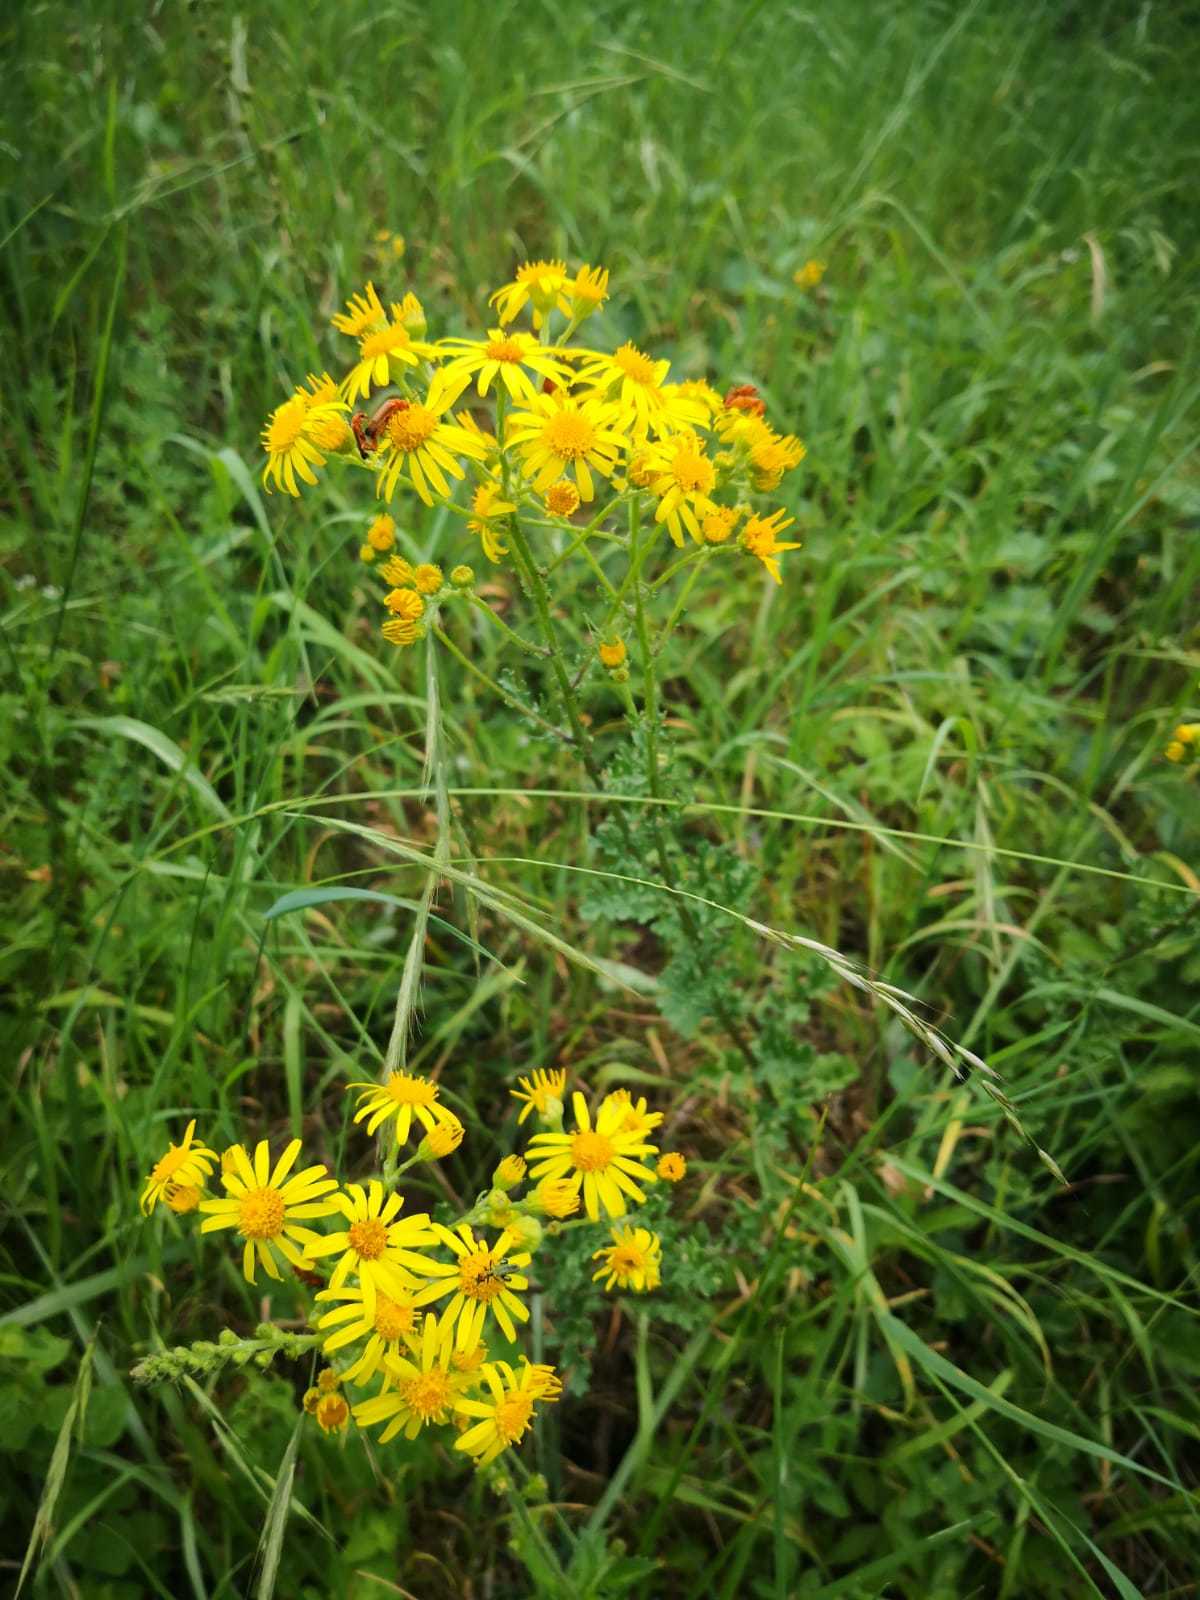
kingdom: Plantae
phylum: Tracheophyta
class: Magnoliopsida
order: Asterales
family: Asteraceae
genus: Jacobaea
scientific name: Jacobaea vulgaris
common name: Stinking willie
